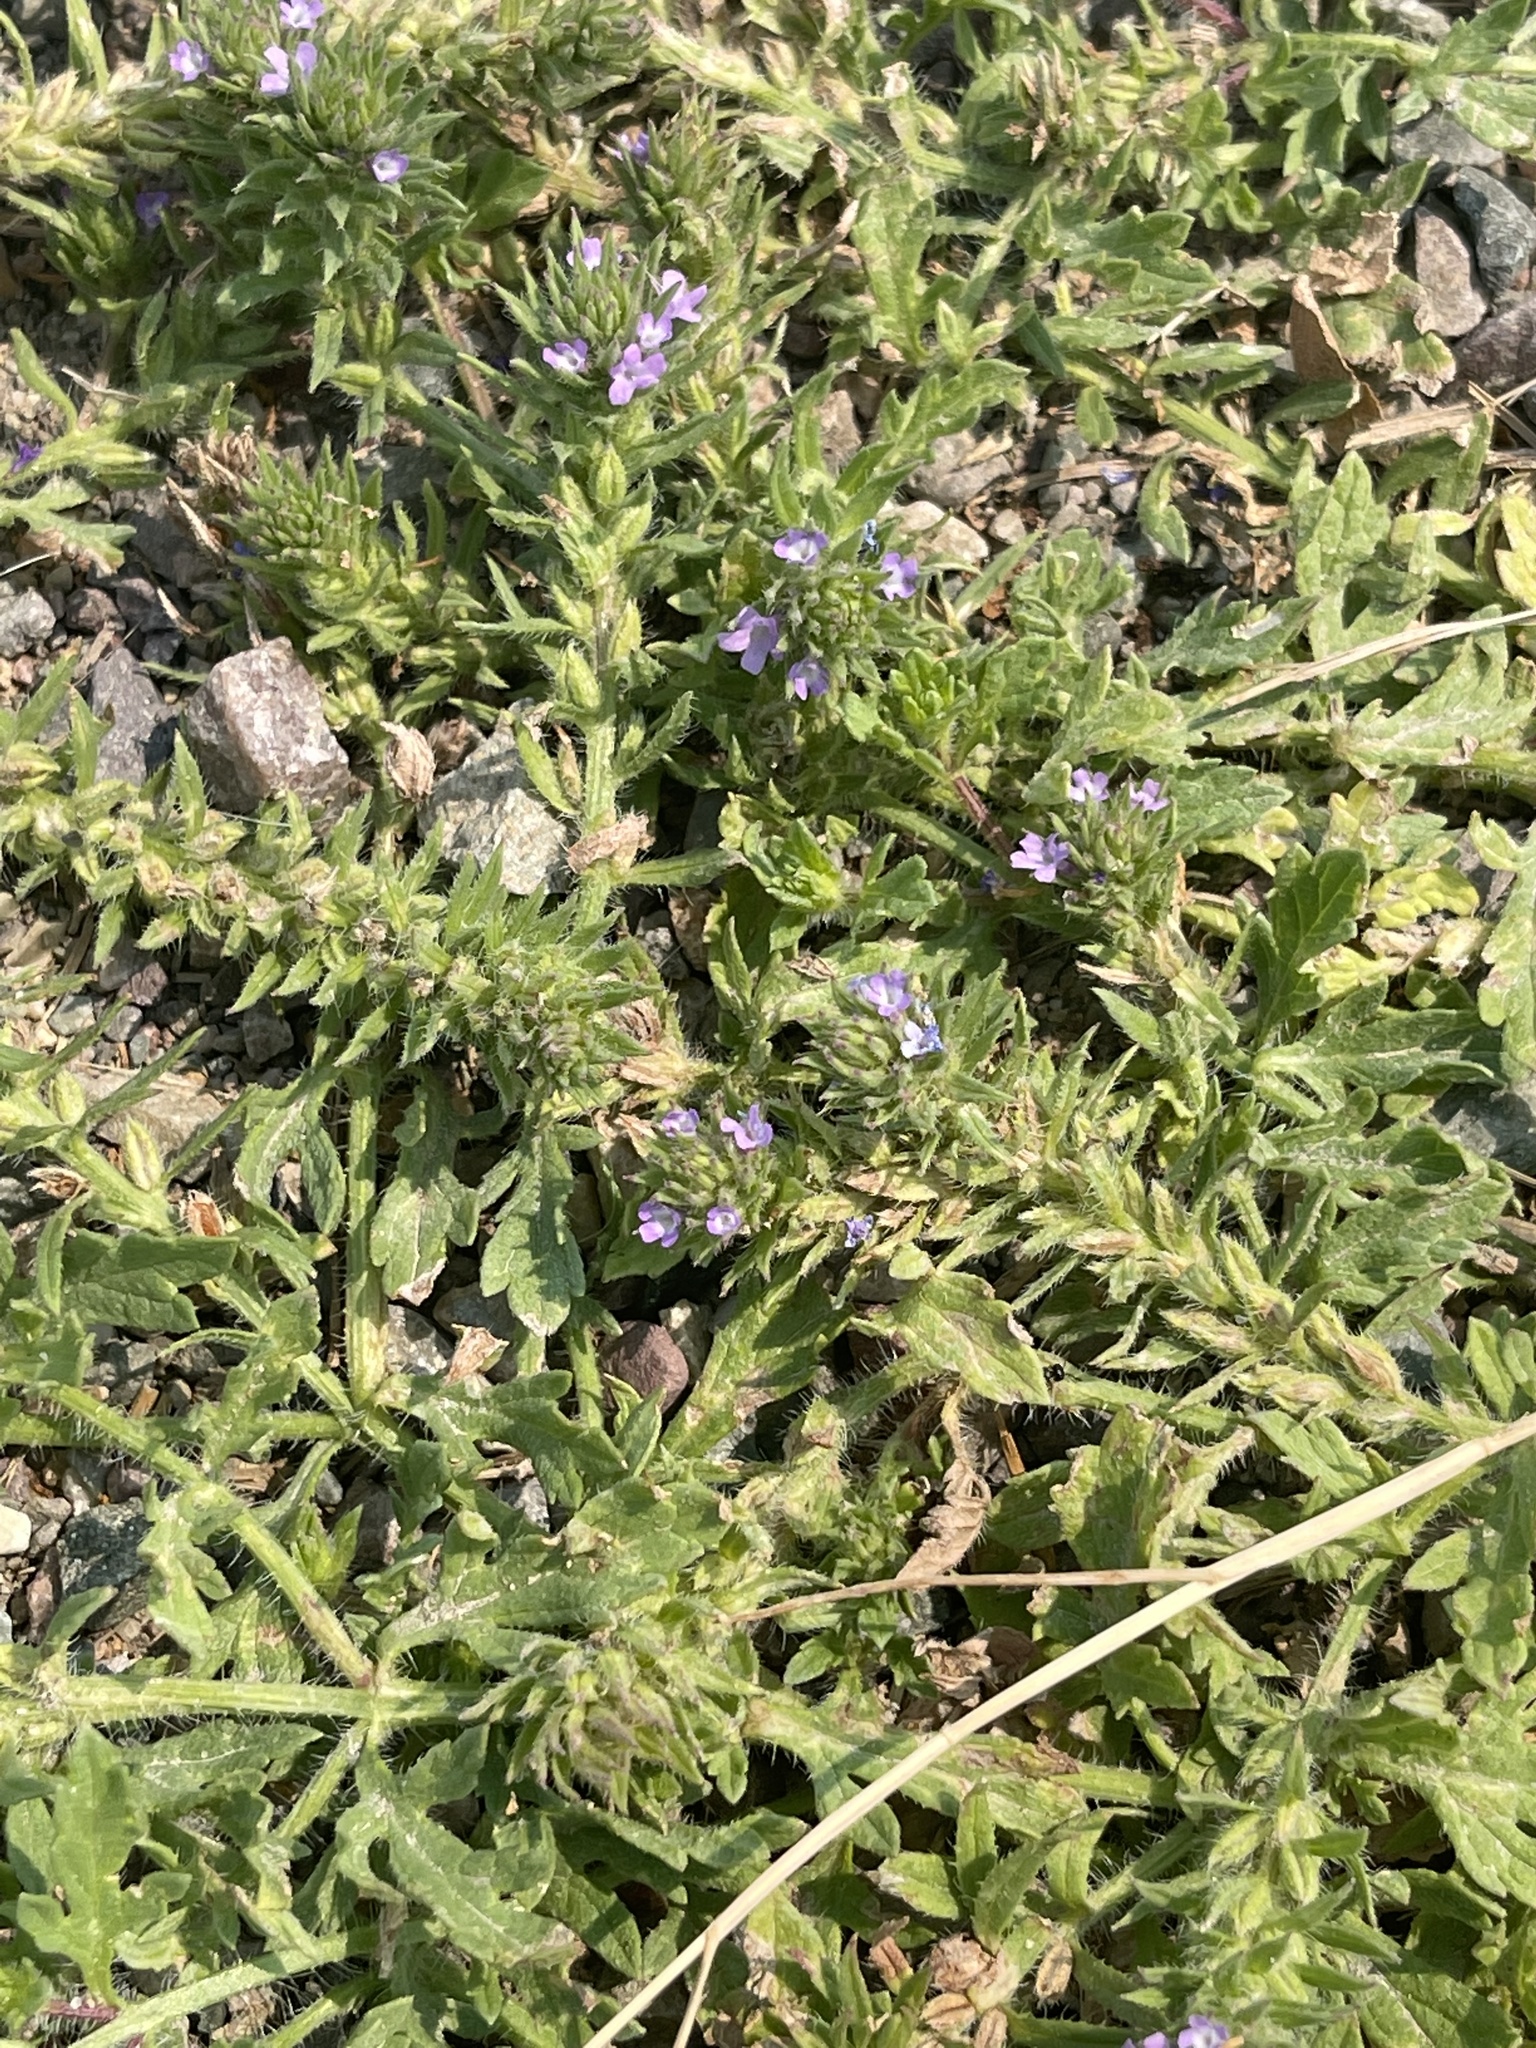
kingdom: Plantae
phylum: Tracheophyta
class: Magnoliopsida
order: Lamiales
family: Verbenaceae
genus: Verbena
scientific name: Verbena bracteata
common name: Bracted vervain
